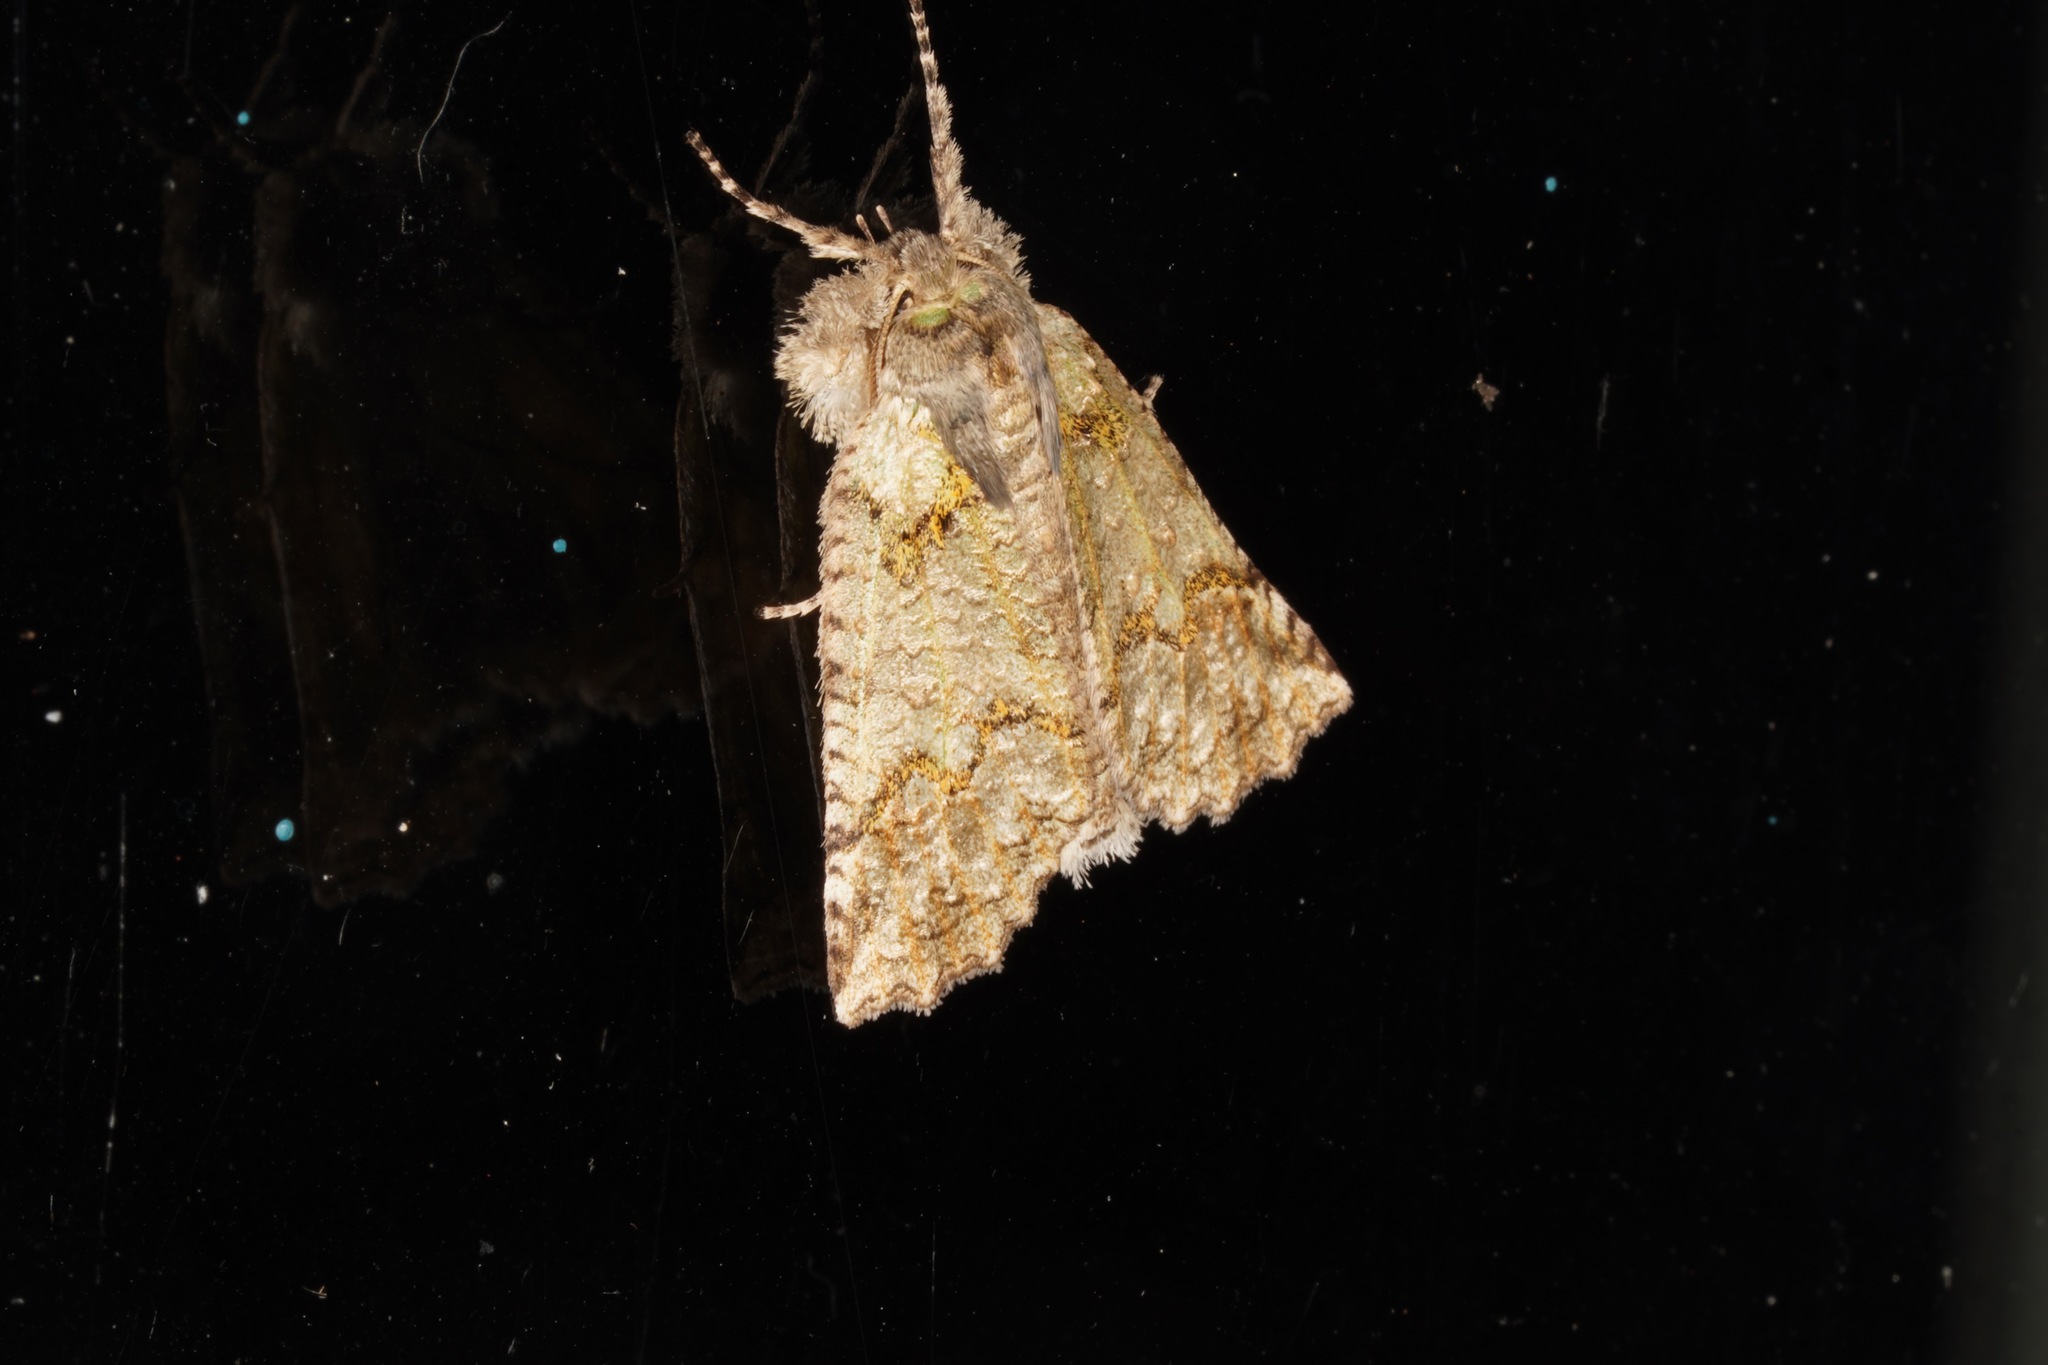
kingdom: Animalia
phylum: Arthropoda
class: Insecta
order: Lepidoptera
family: Geometridae
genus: Declana
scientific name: Declana floccosa
